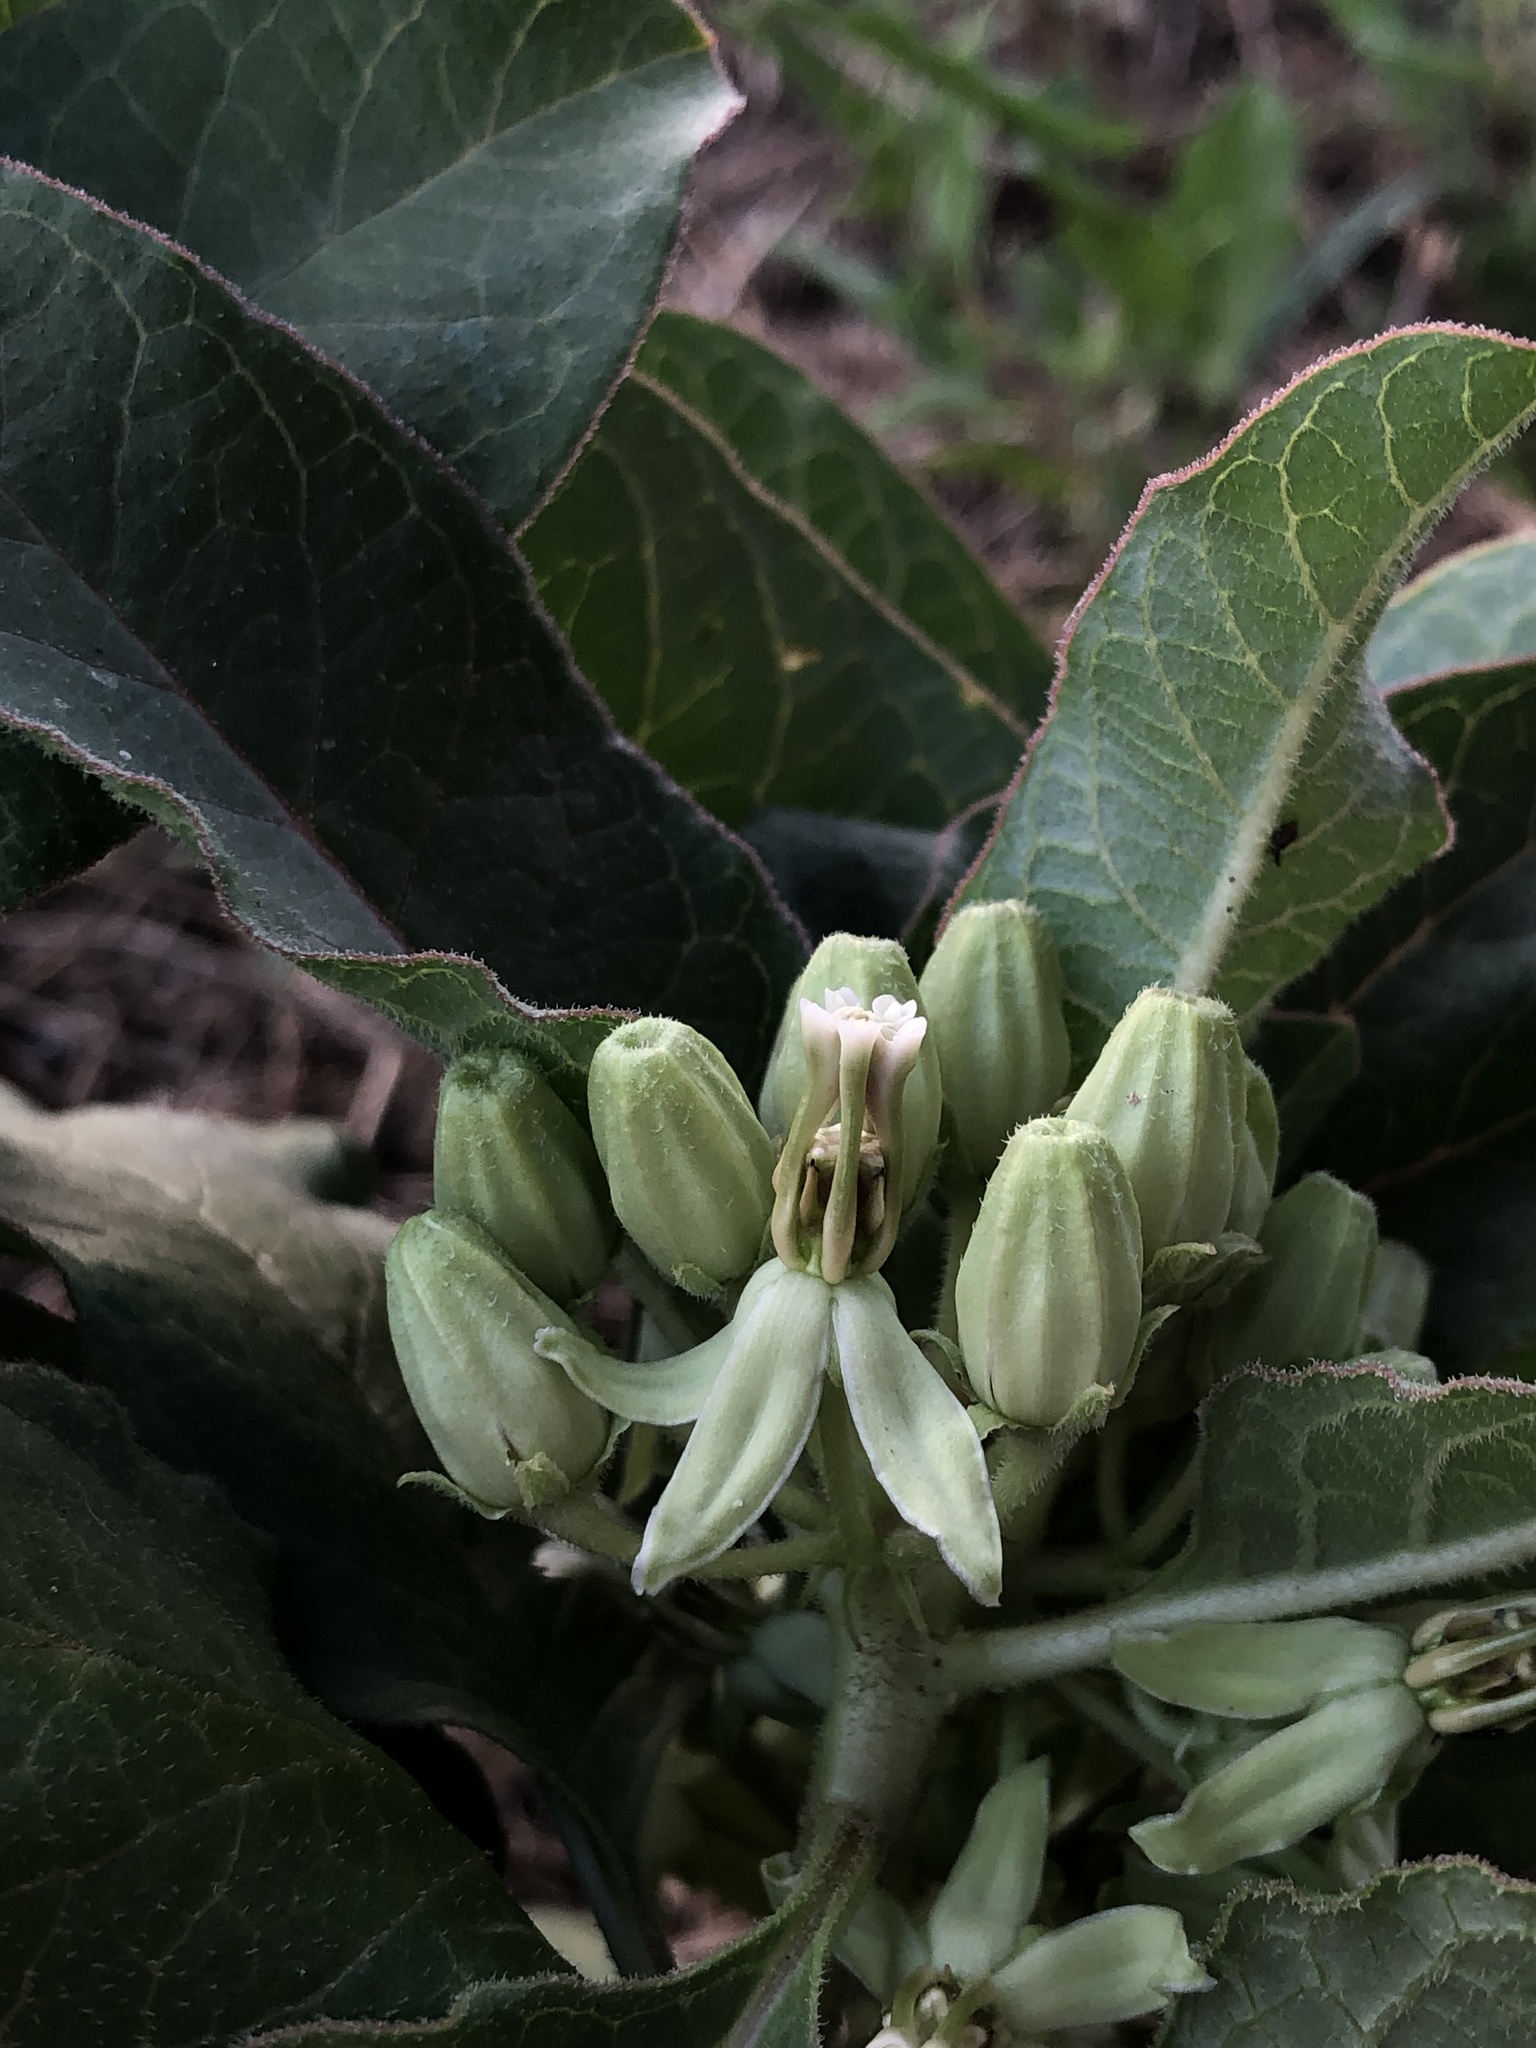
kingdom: Plantae
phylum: Tracheophyta
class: Magnoliopsida
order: Gentianales
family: Apocynaceae
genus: Asclepias
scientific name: Asclepias oenotheroides
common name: Zizotes milkweed
